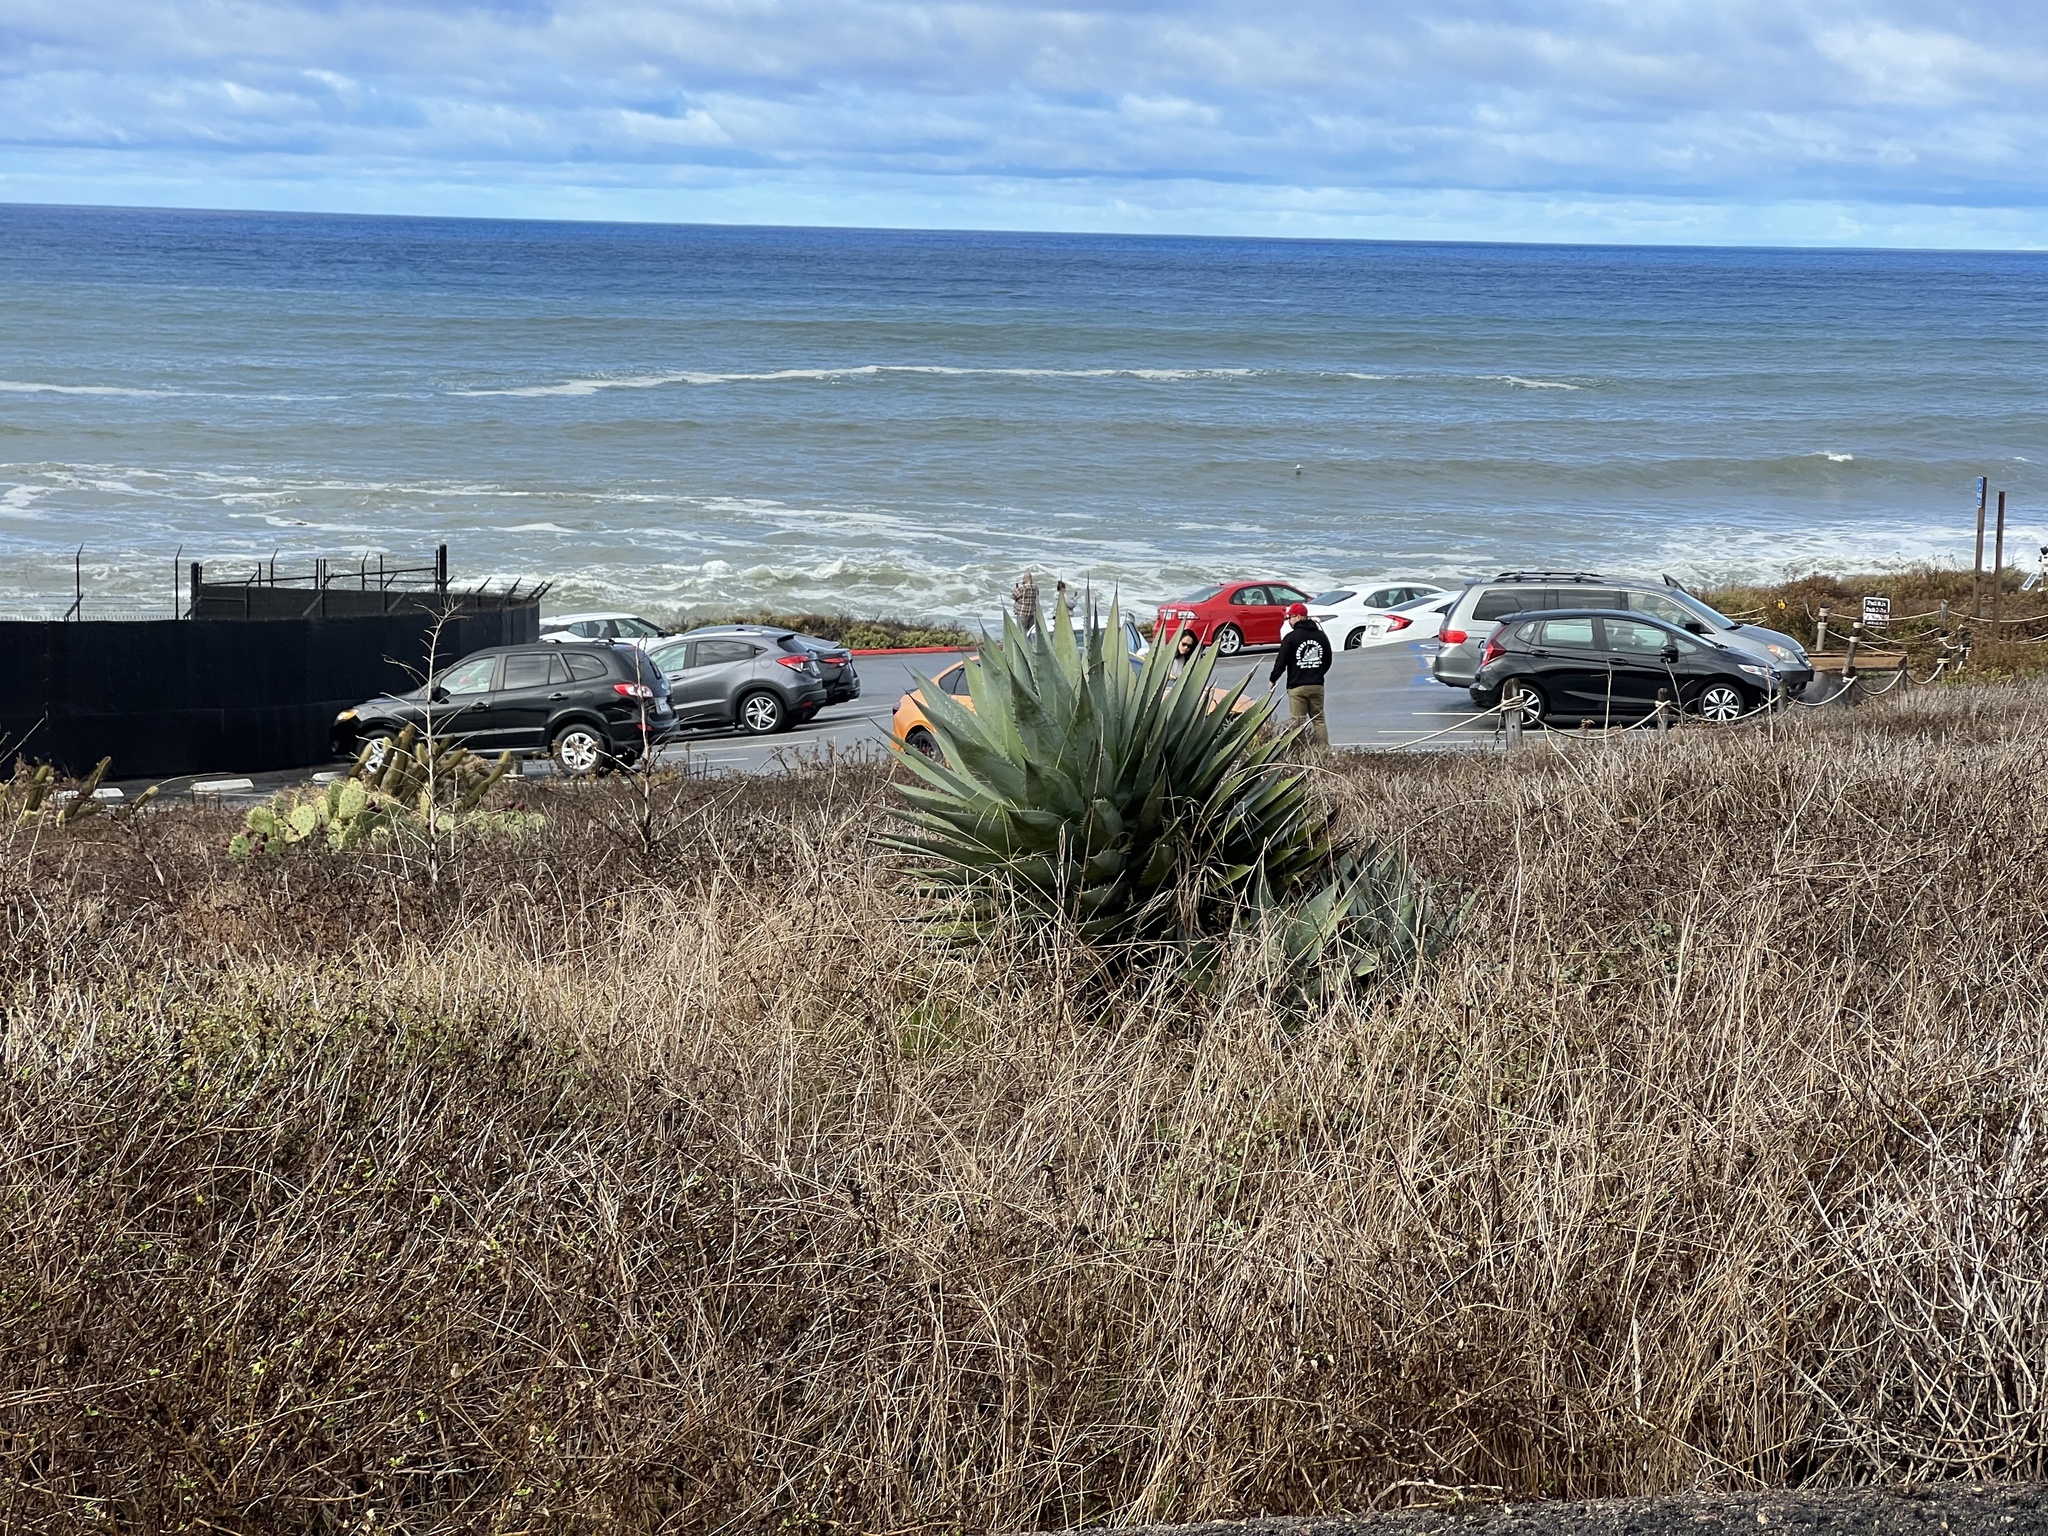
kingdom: Plantae
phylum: Tracheophyta
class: Liliopsida
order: Asparagales
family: Asparagaceae
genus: Agave
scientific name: Agave shawii
